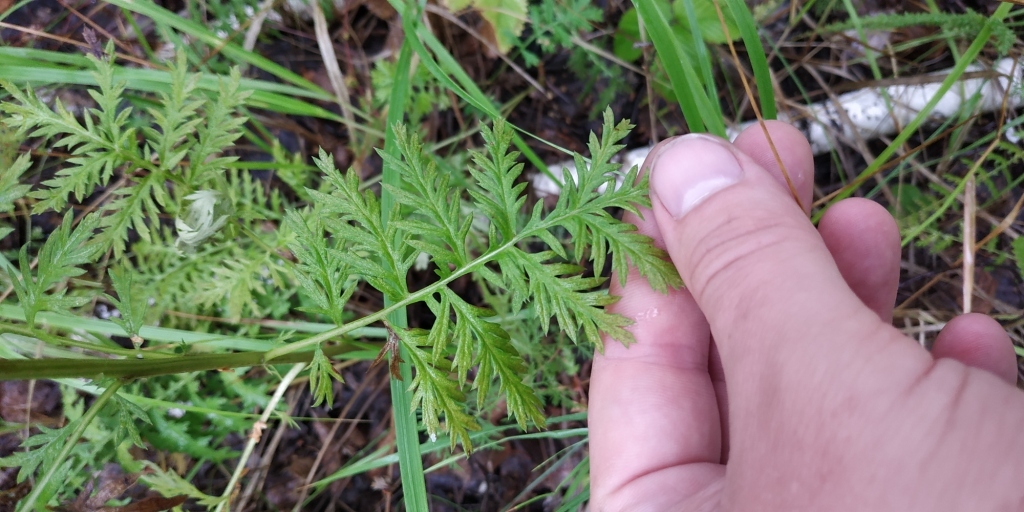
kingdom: Plantae
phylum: Tracheophyta
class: Magnoliopsida
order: Asterales
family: Asteraceae
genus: Artemisia
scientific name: Artemisia armeniaca
